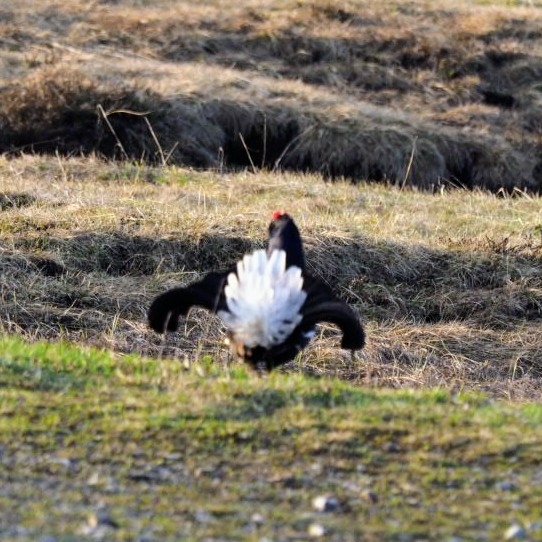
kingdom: Animalia
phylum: Chordata
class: Aves
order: Galliformes
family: Phasianidae
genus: Lyrurus
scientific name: Lyrurus tetrix
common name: Black grouse
